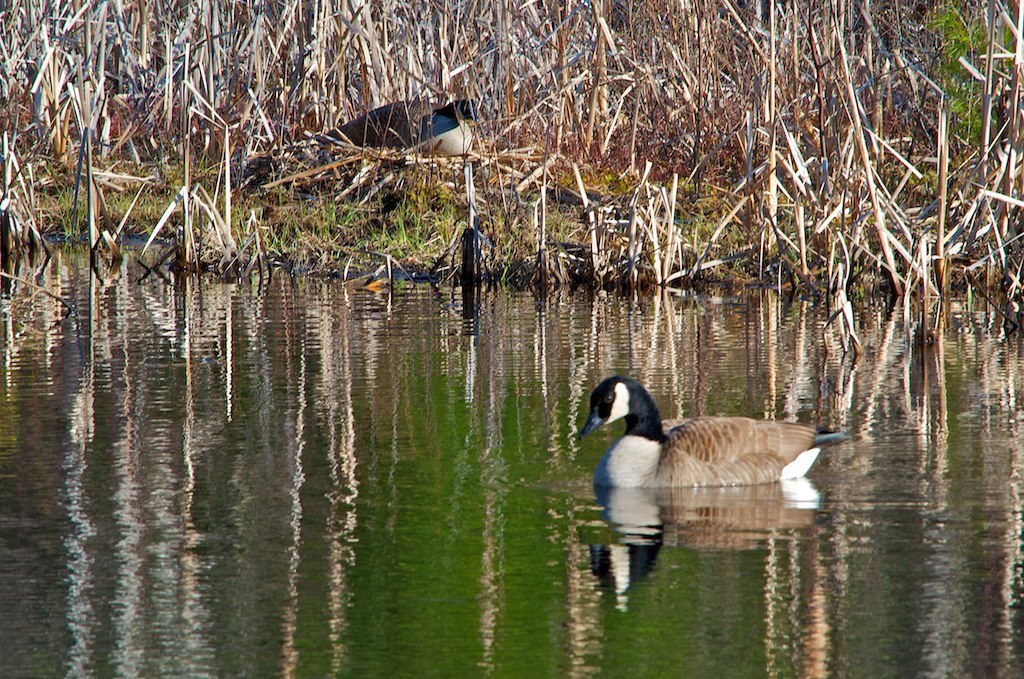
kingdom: Animalia
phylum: Chordata
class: Aves
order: Anseriformes
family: Anatidae
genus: Branta
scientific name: Branta canadensis
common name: Canada goose
